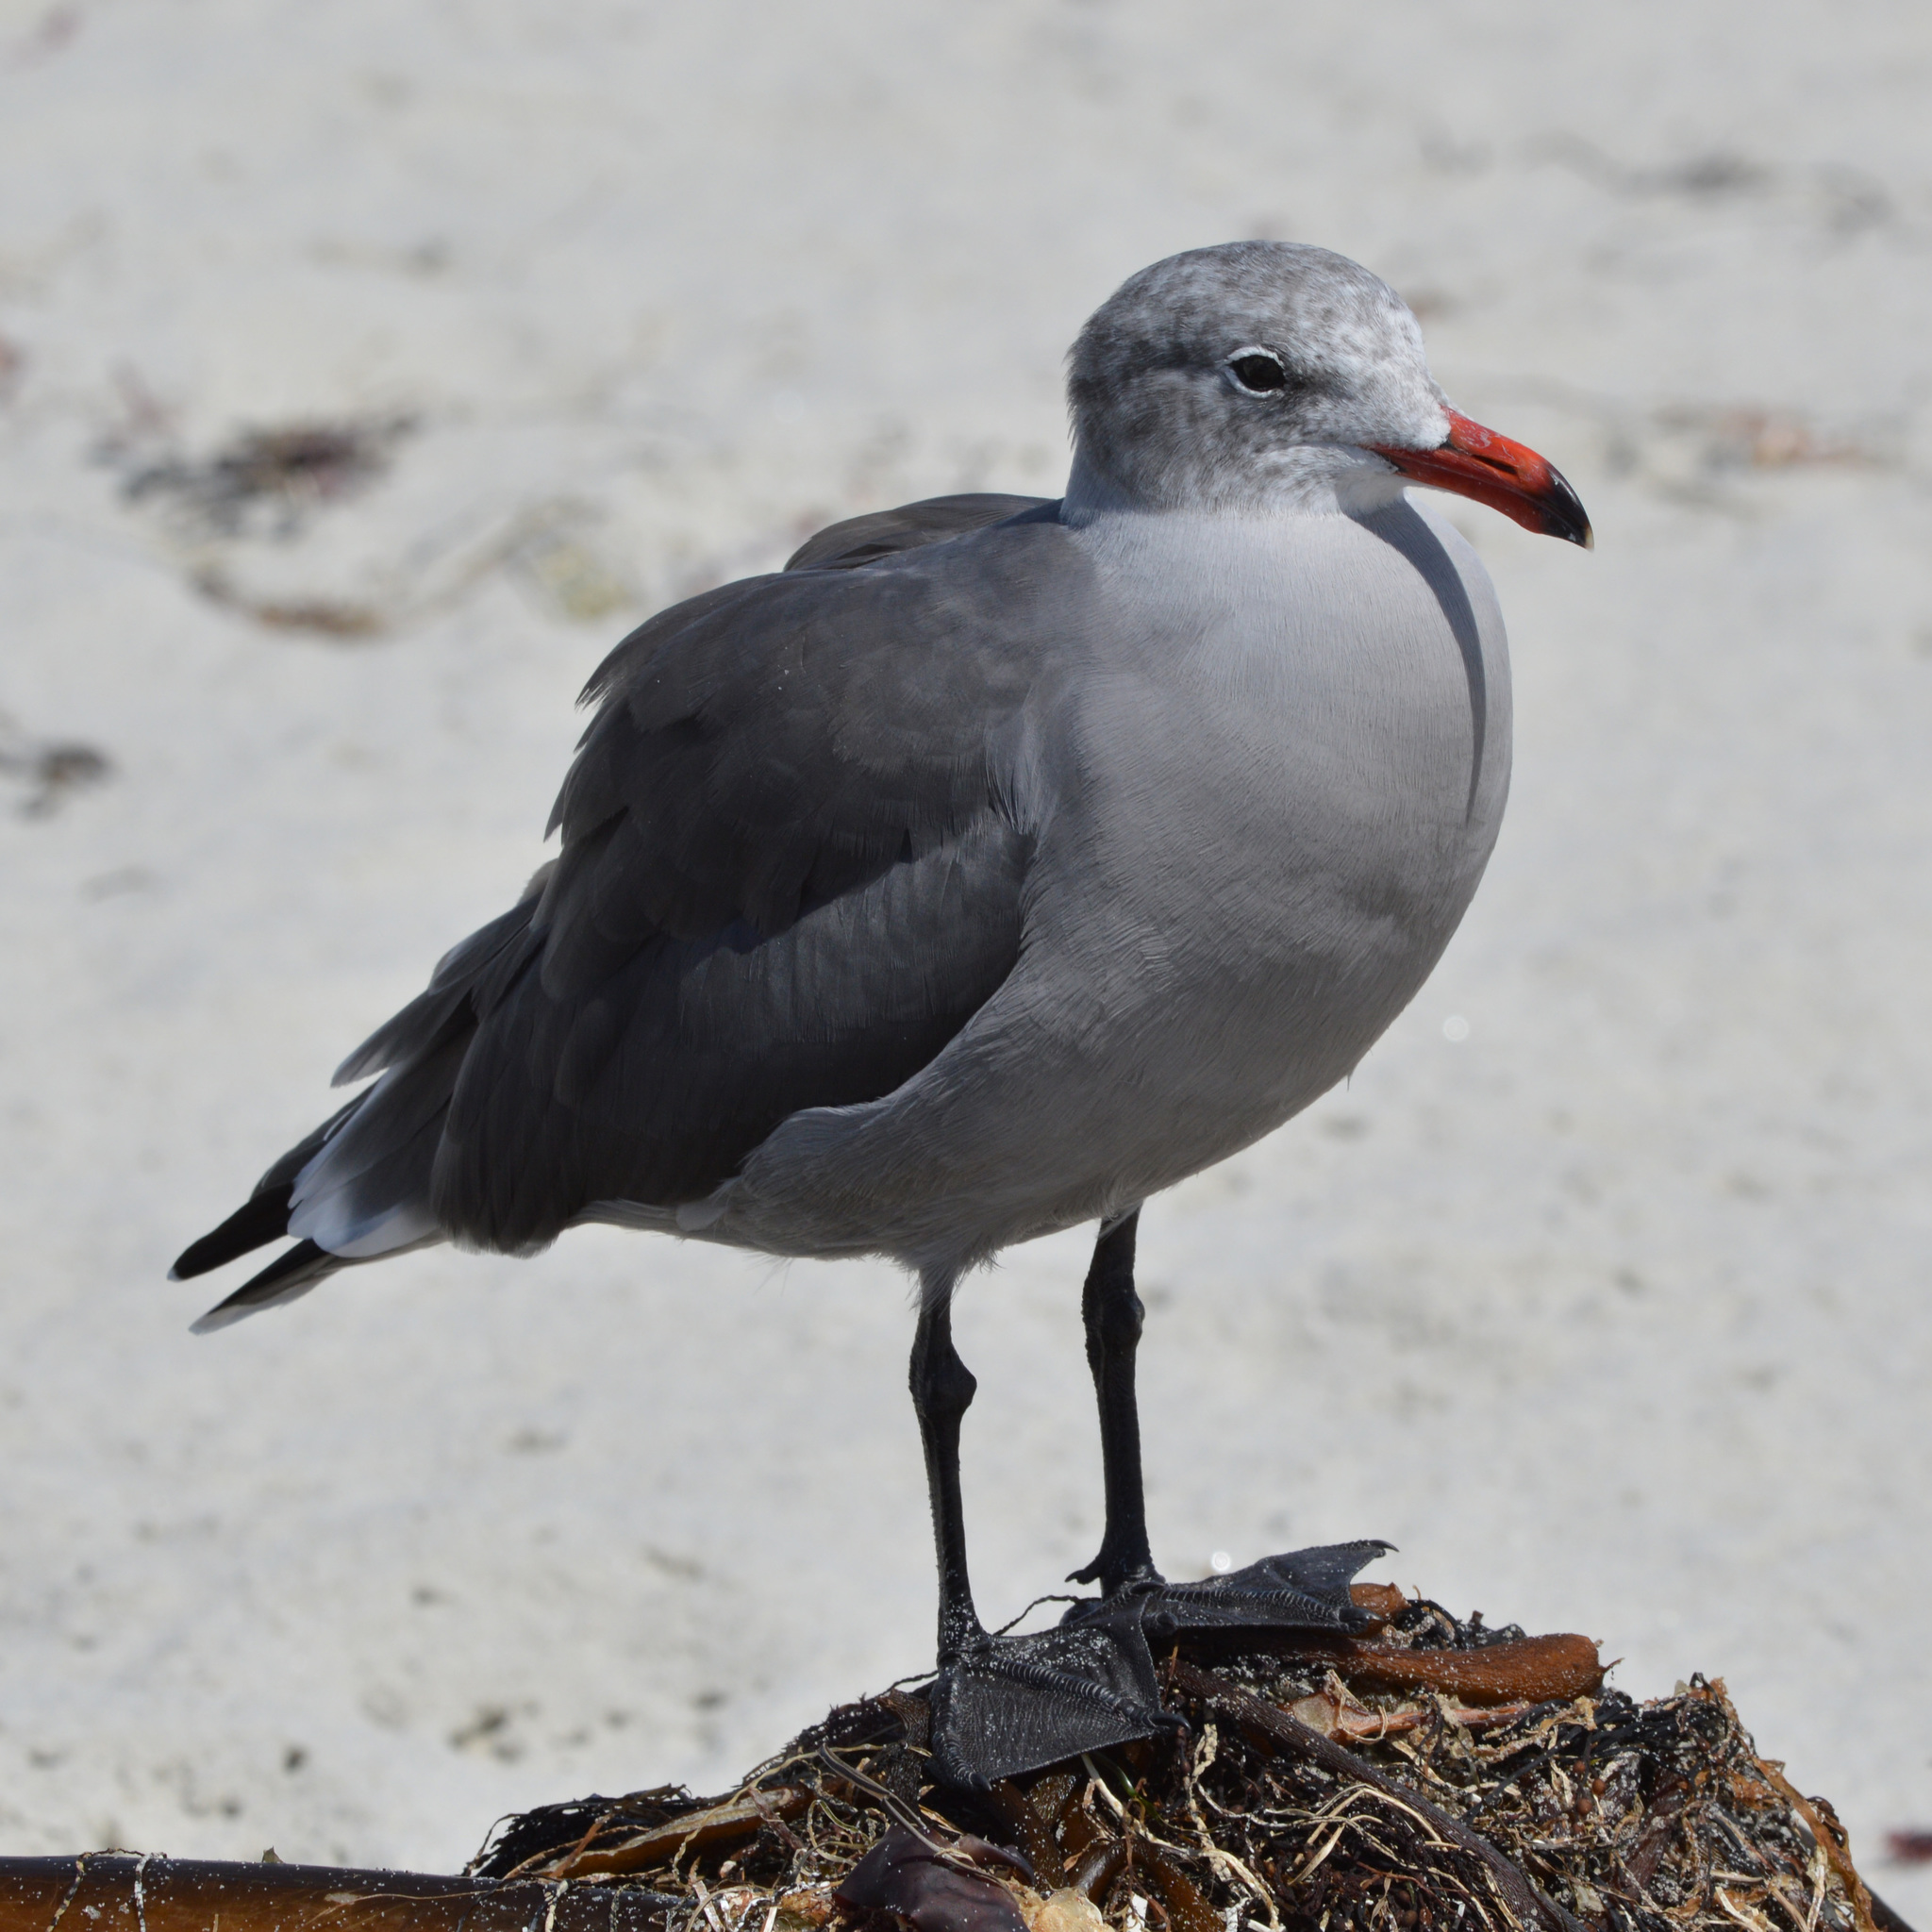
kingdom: Animalia
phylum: Chordata
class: Aves
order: Charadriiformes
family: Laridae
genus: Larus
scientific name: Larus heermanni
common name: Heermann's gull
